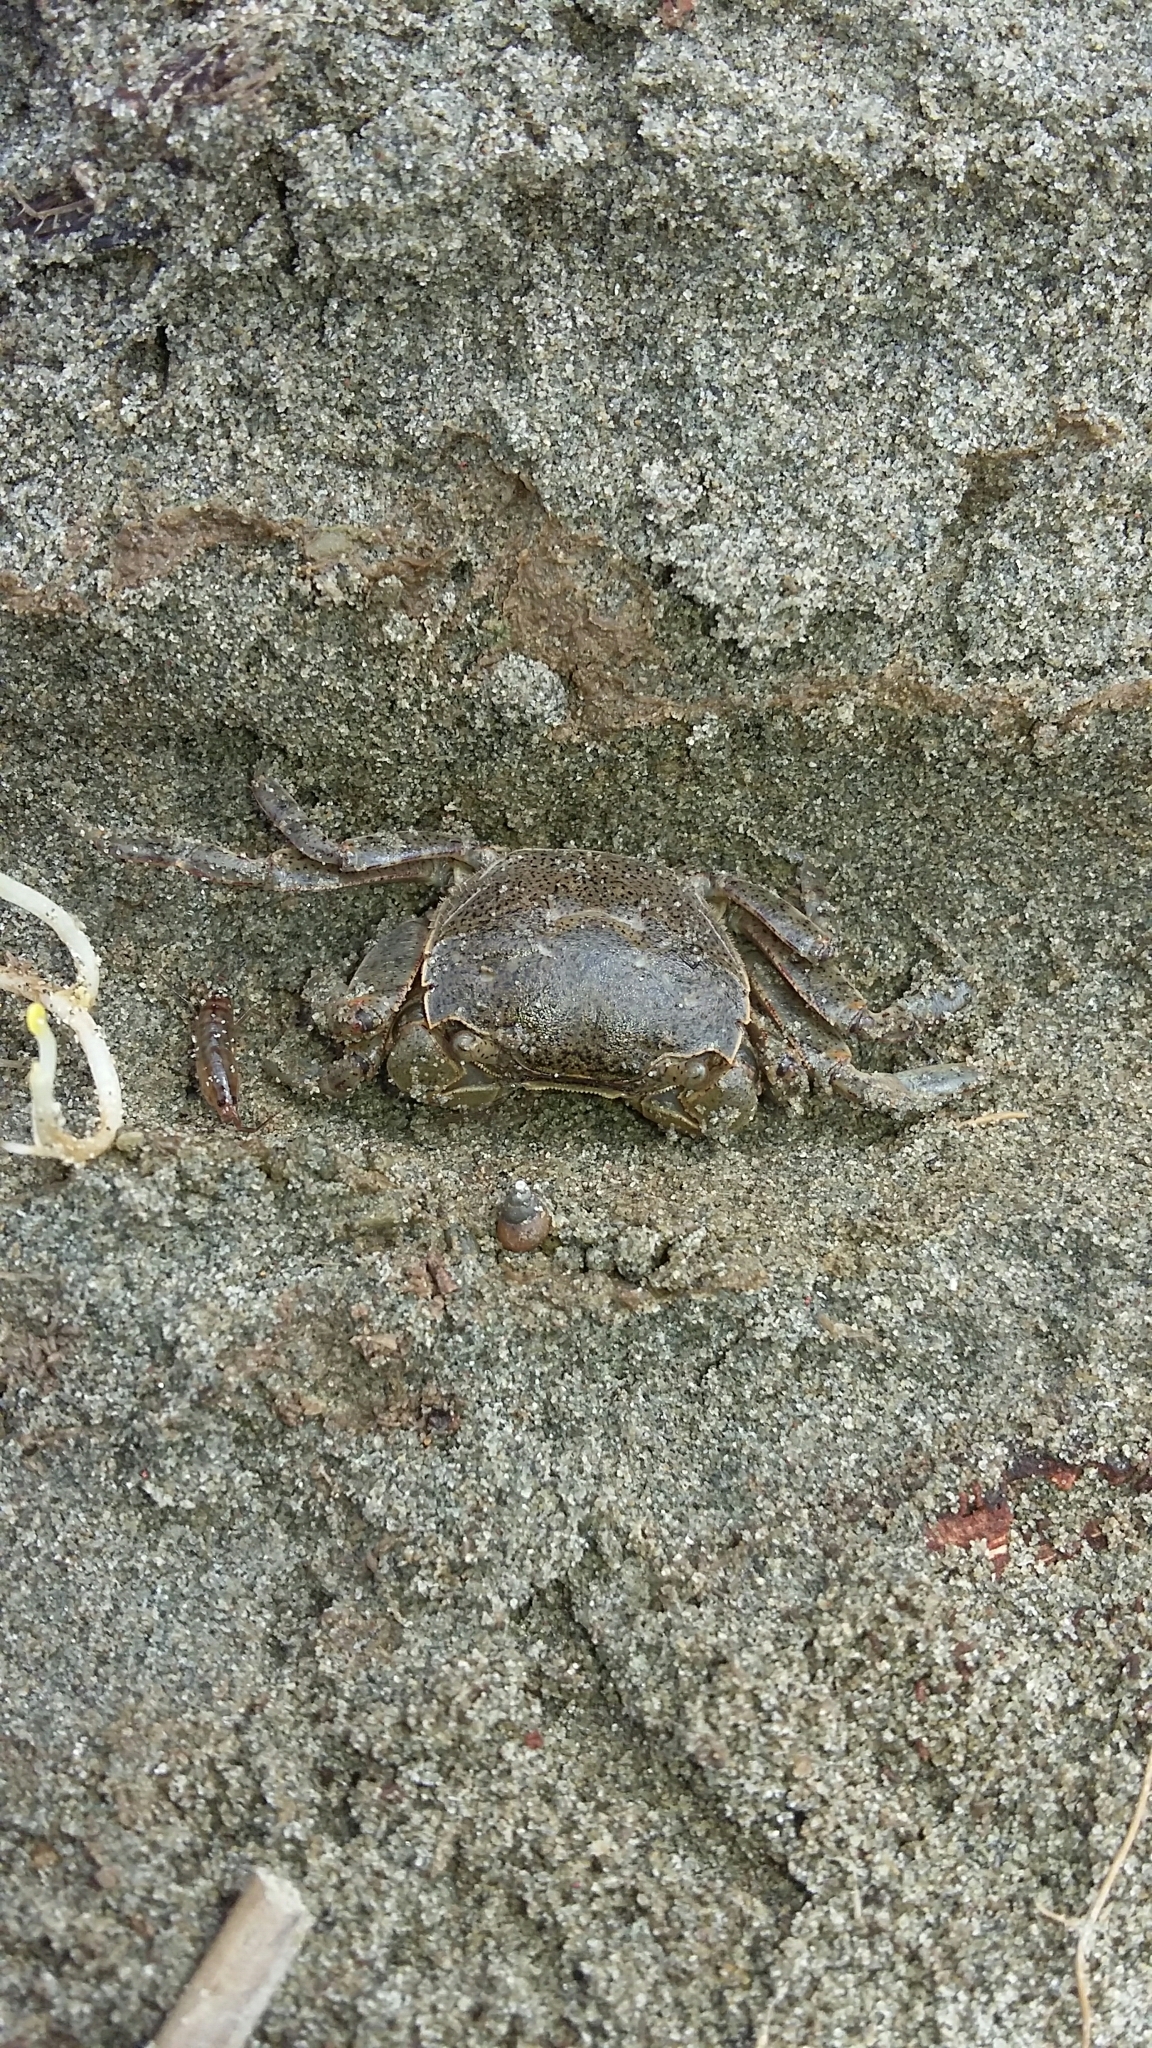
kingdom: Animalia
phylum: Arthropoda
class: Malacostraca
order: Decapoda
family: Varunidae
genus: Hemigrapsus
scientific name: Hemigrapsus crenulatus
